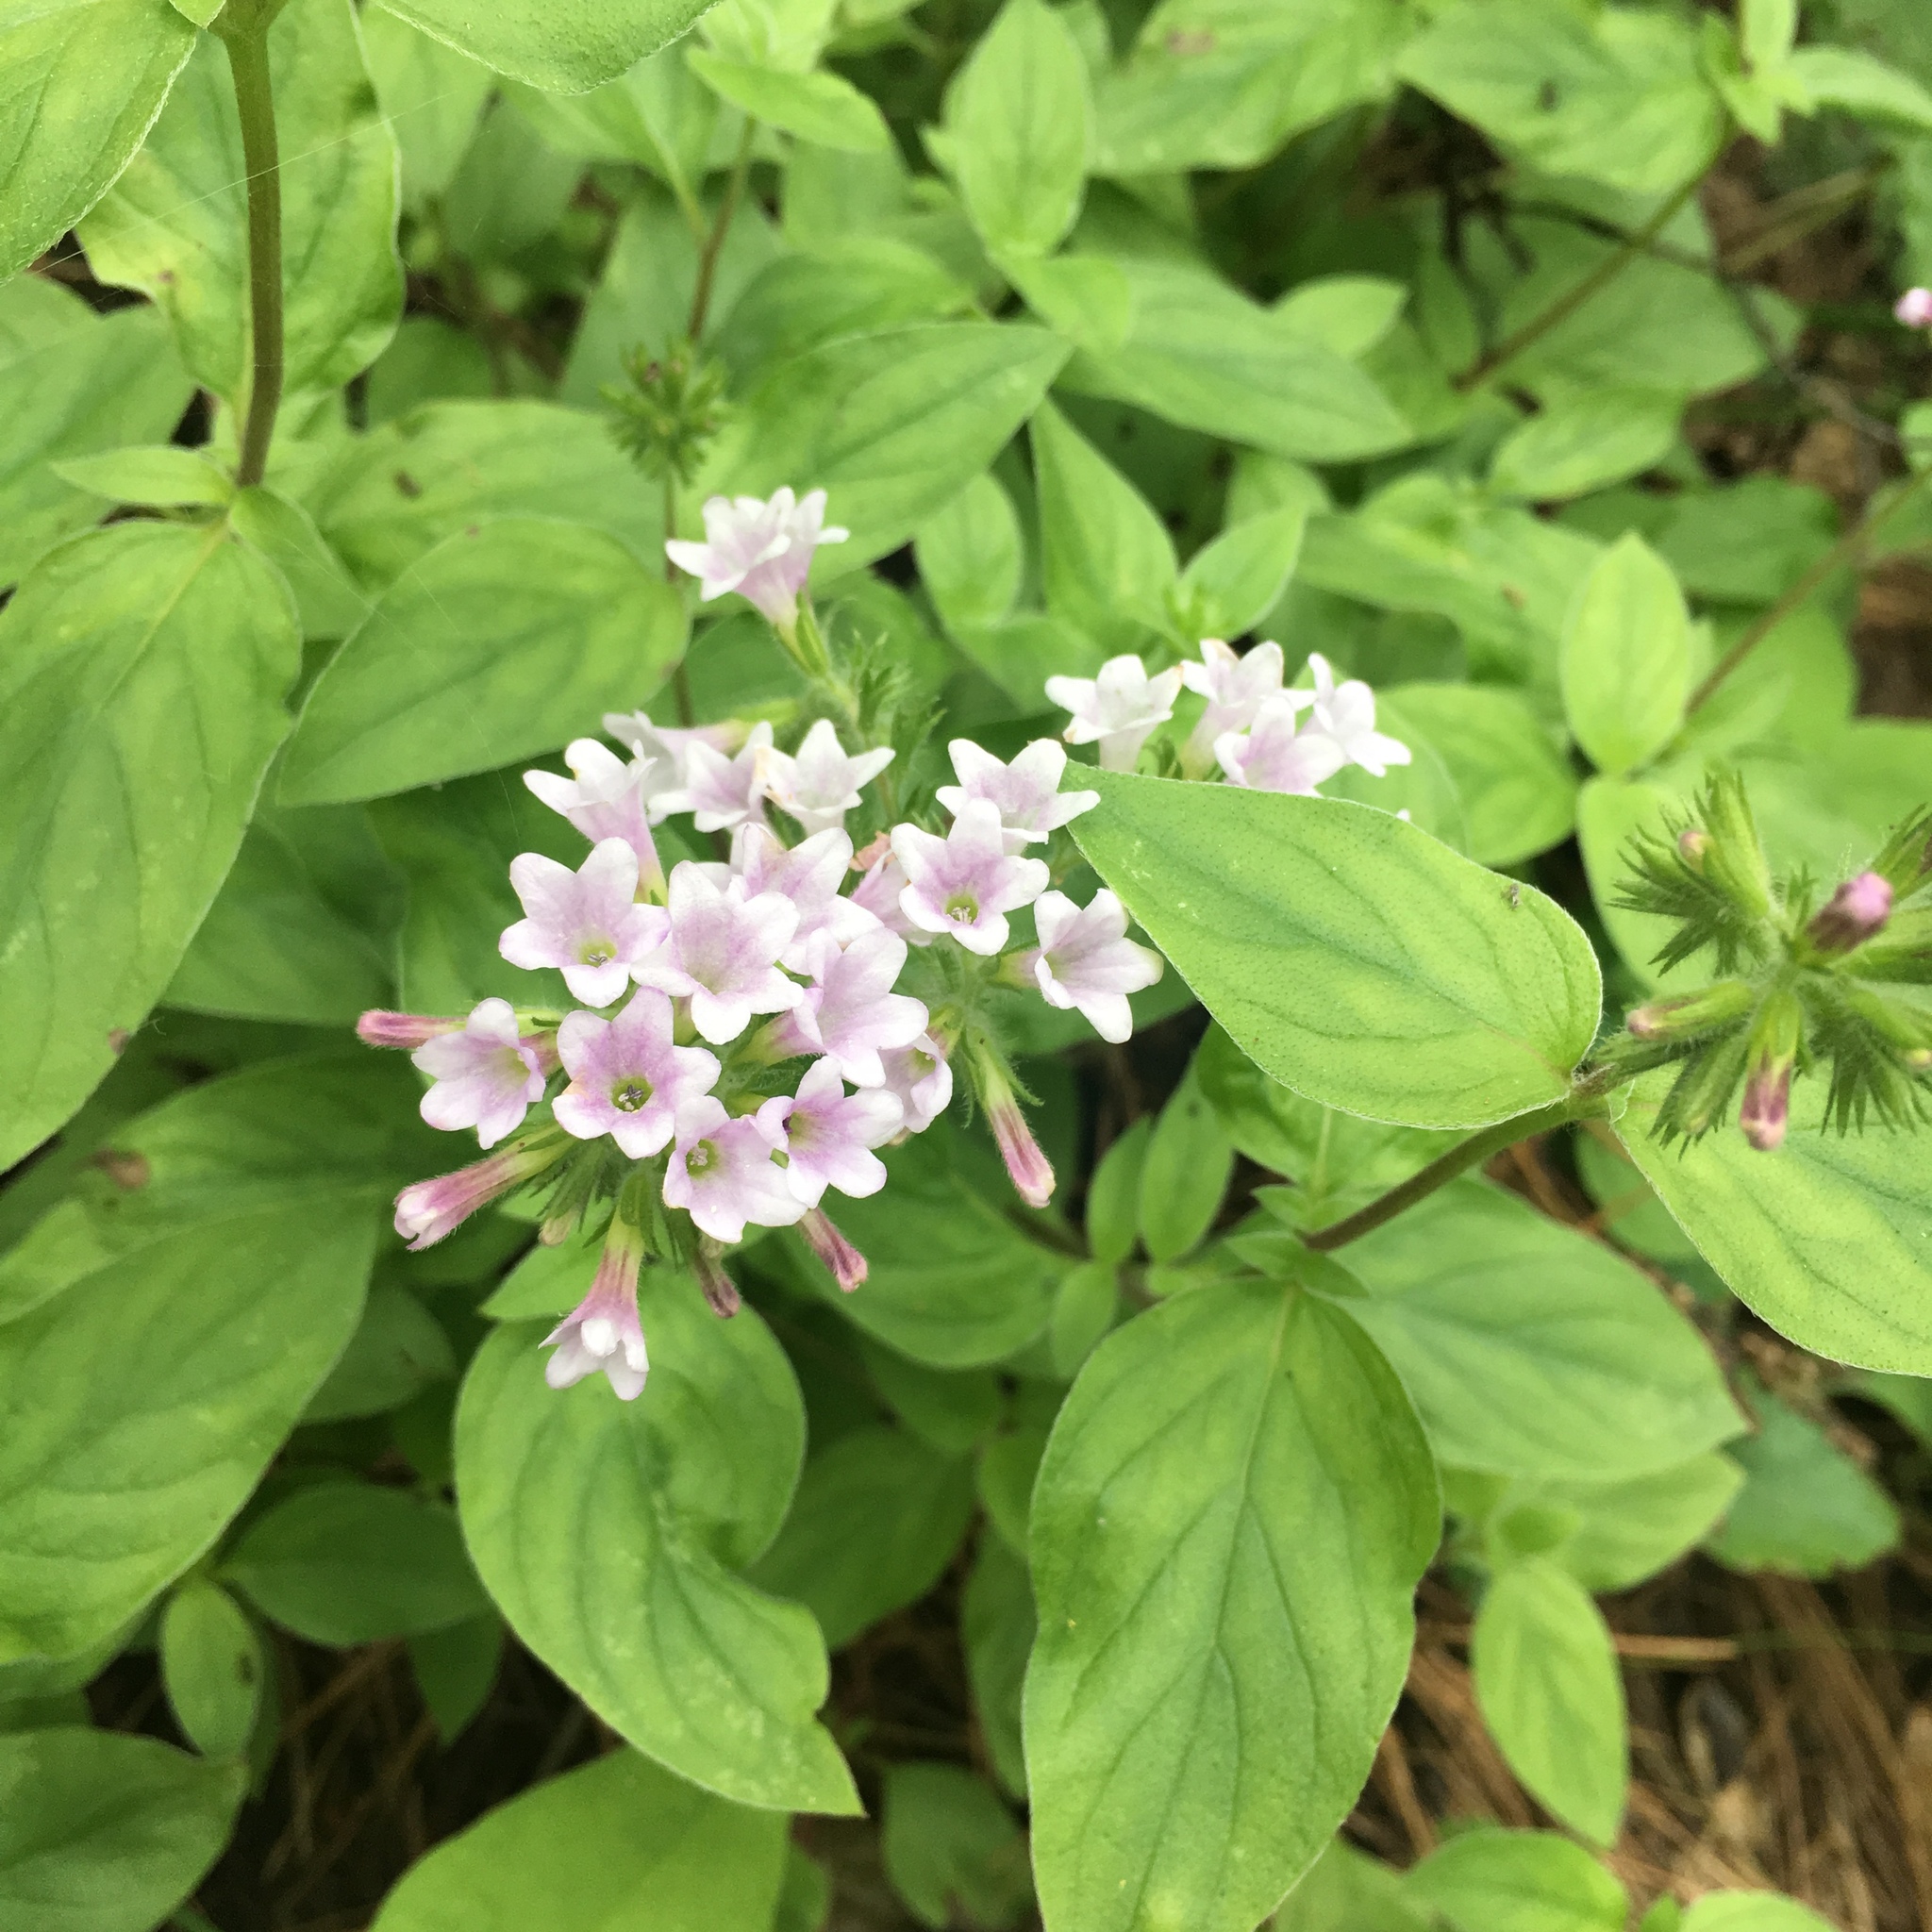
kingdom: Plantae
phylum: Tracheophyta
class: Magnoliopsida
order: Boraginales
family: Hydrophyllaceae
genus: Draperia
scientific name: Draperia systyla
